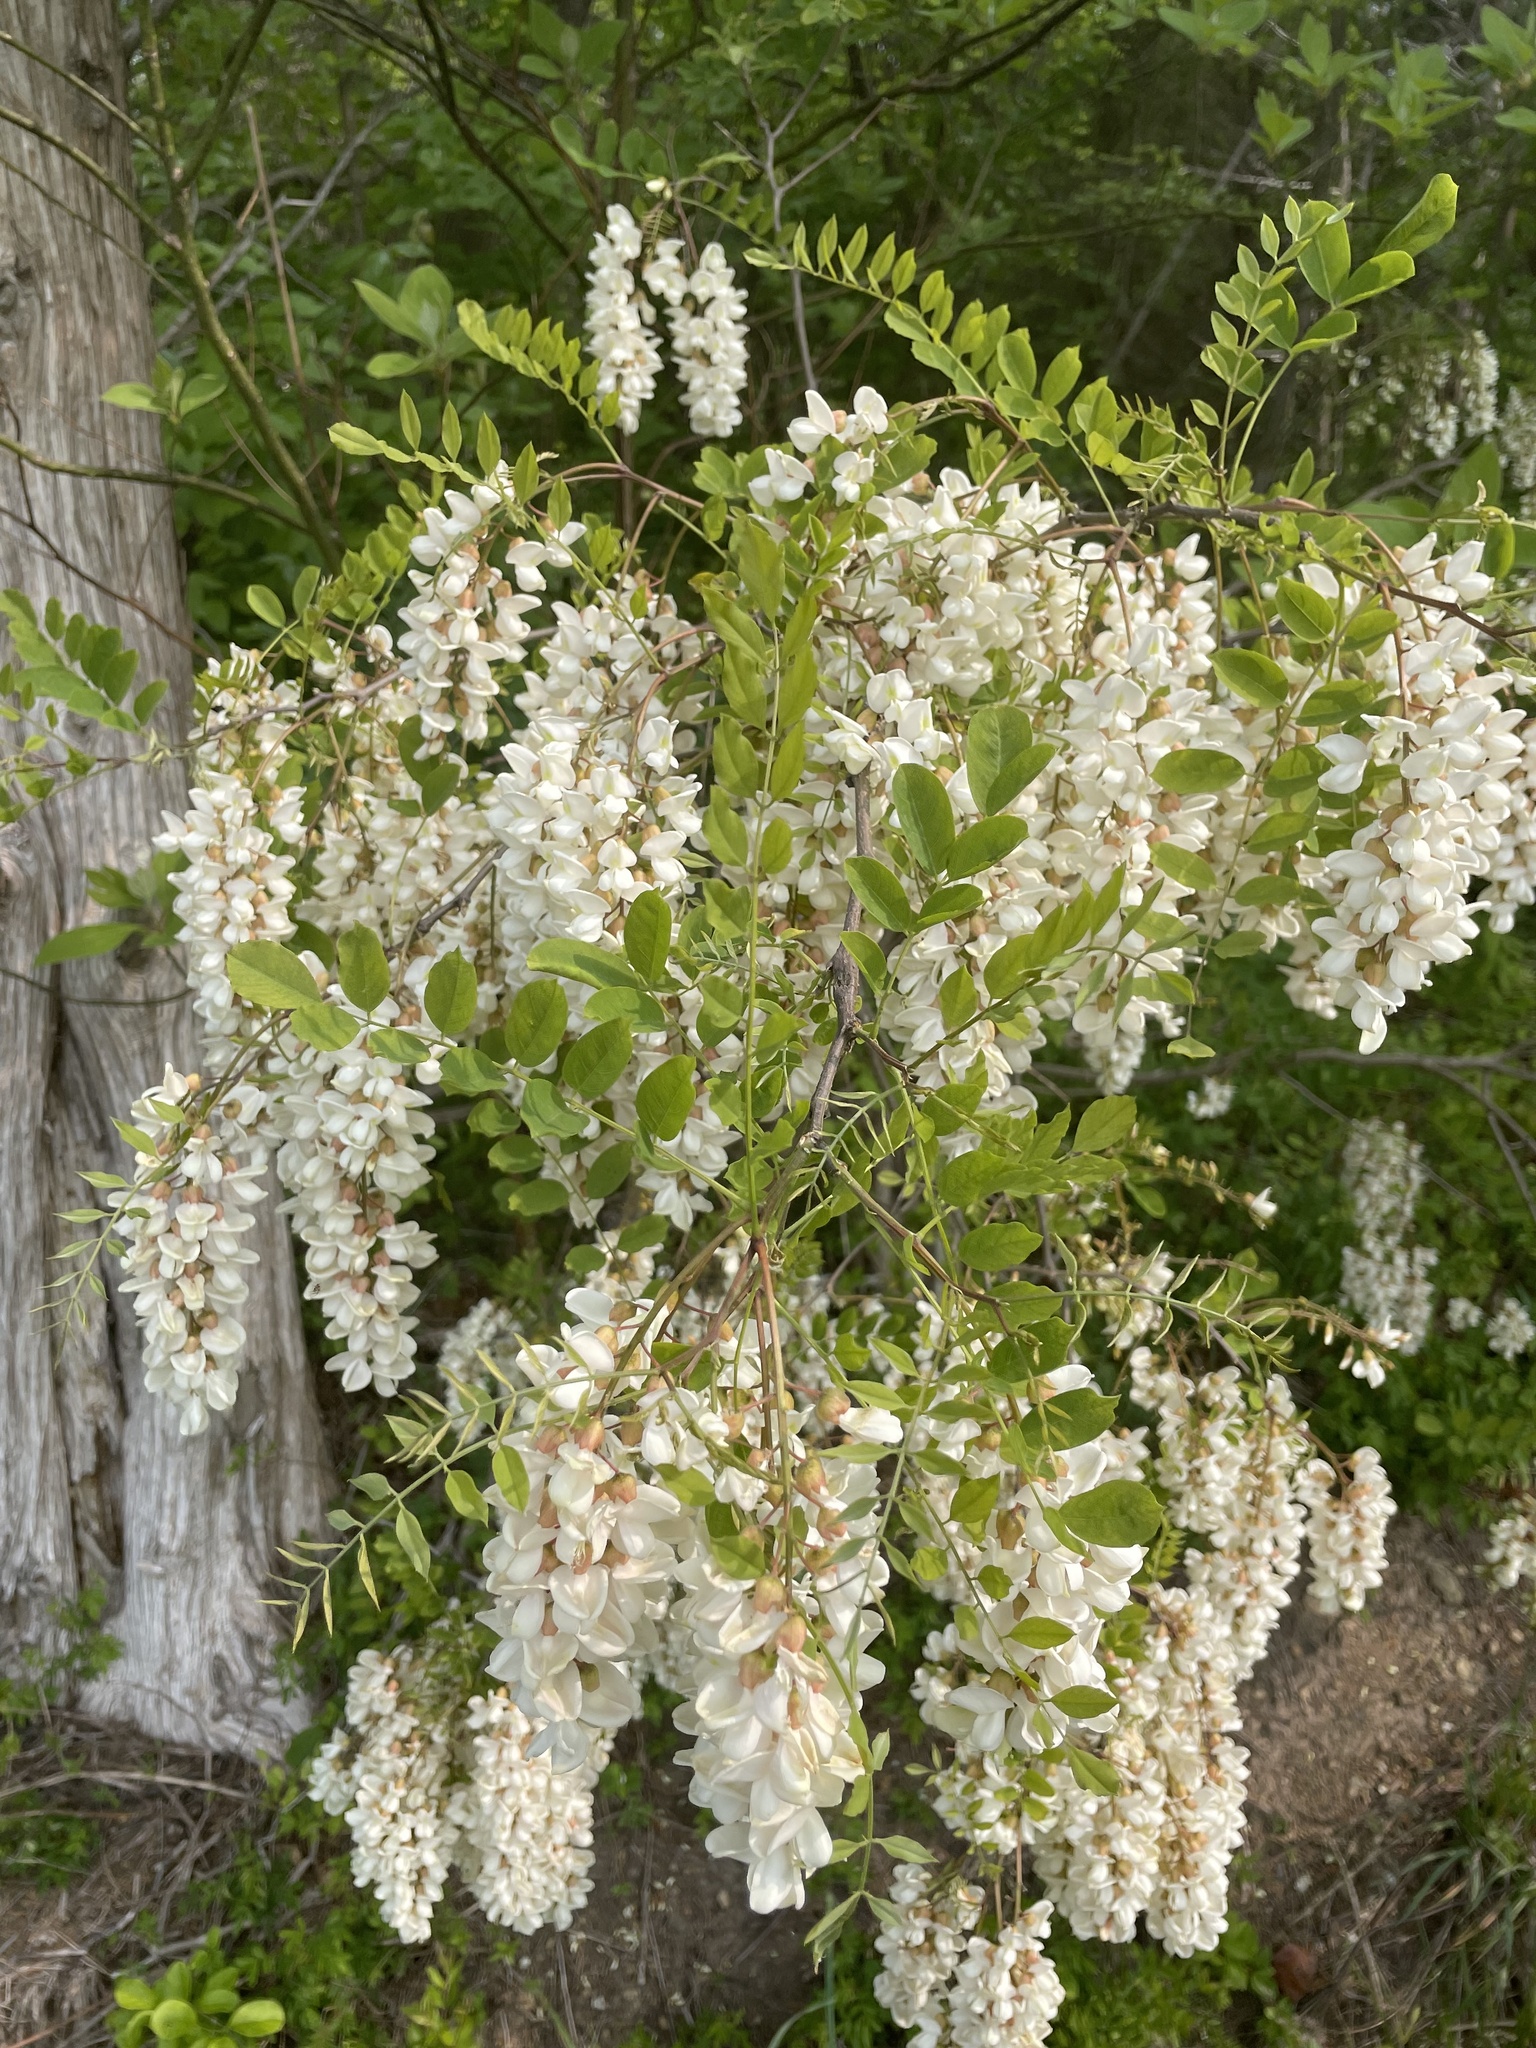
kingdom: Plantae
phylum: Tracheophyta
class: Magnoliopsida
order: Fabales
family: Fabaceae
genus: Robinia
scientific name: Robinia pseudoacacia
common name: Black locust
